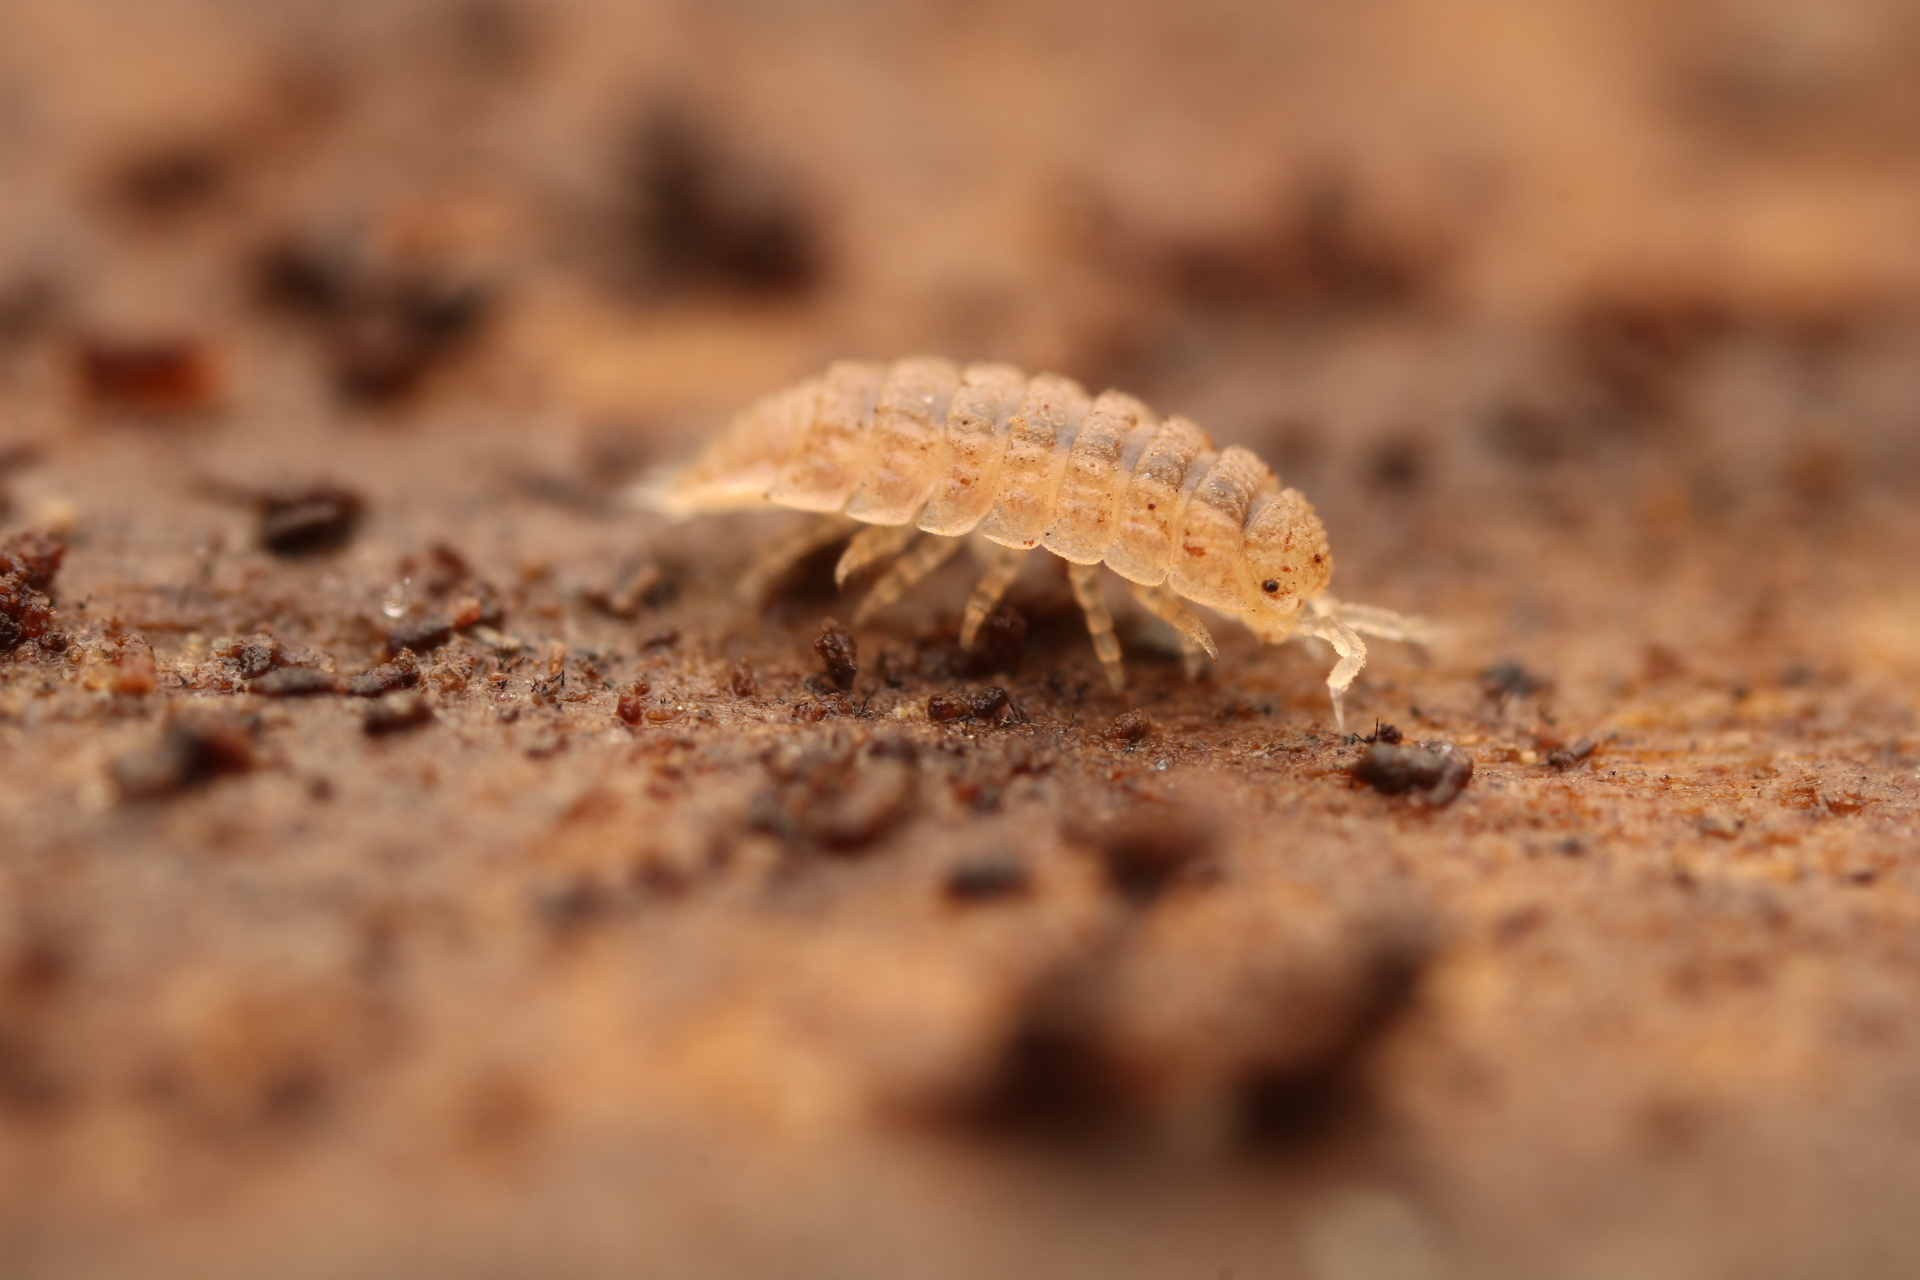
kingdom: Animalia
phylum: Arthropoda
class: Malacostraca
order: Isopoda
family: Trichoniscidae
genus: Haplophthalmus
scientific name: Haplophthalmus danicus
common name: Pillbug
